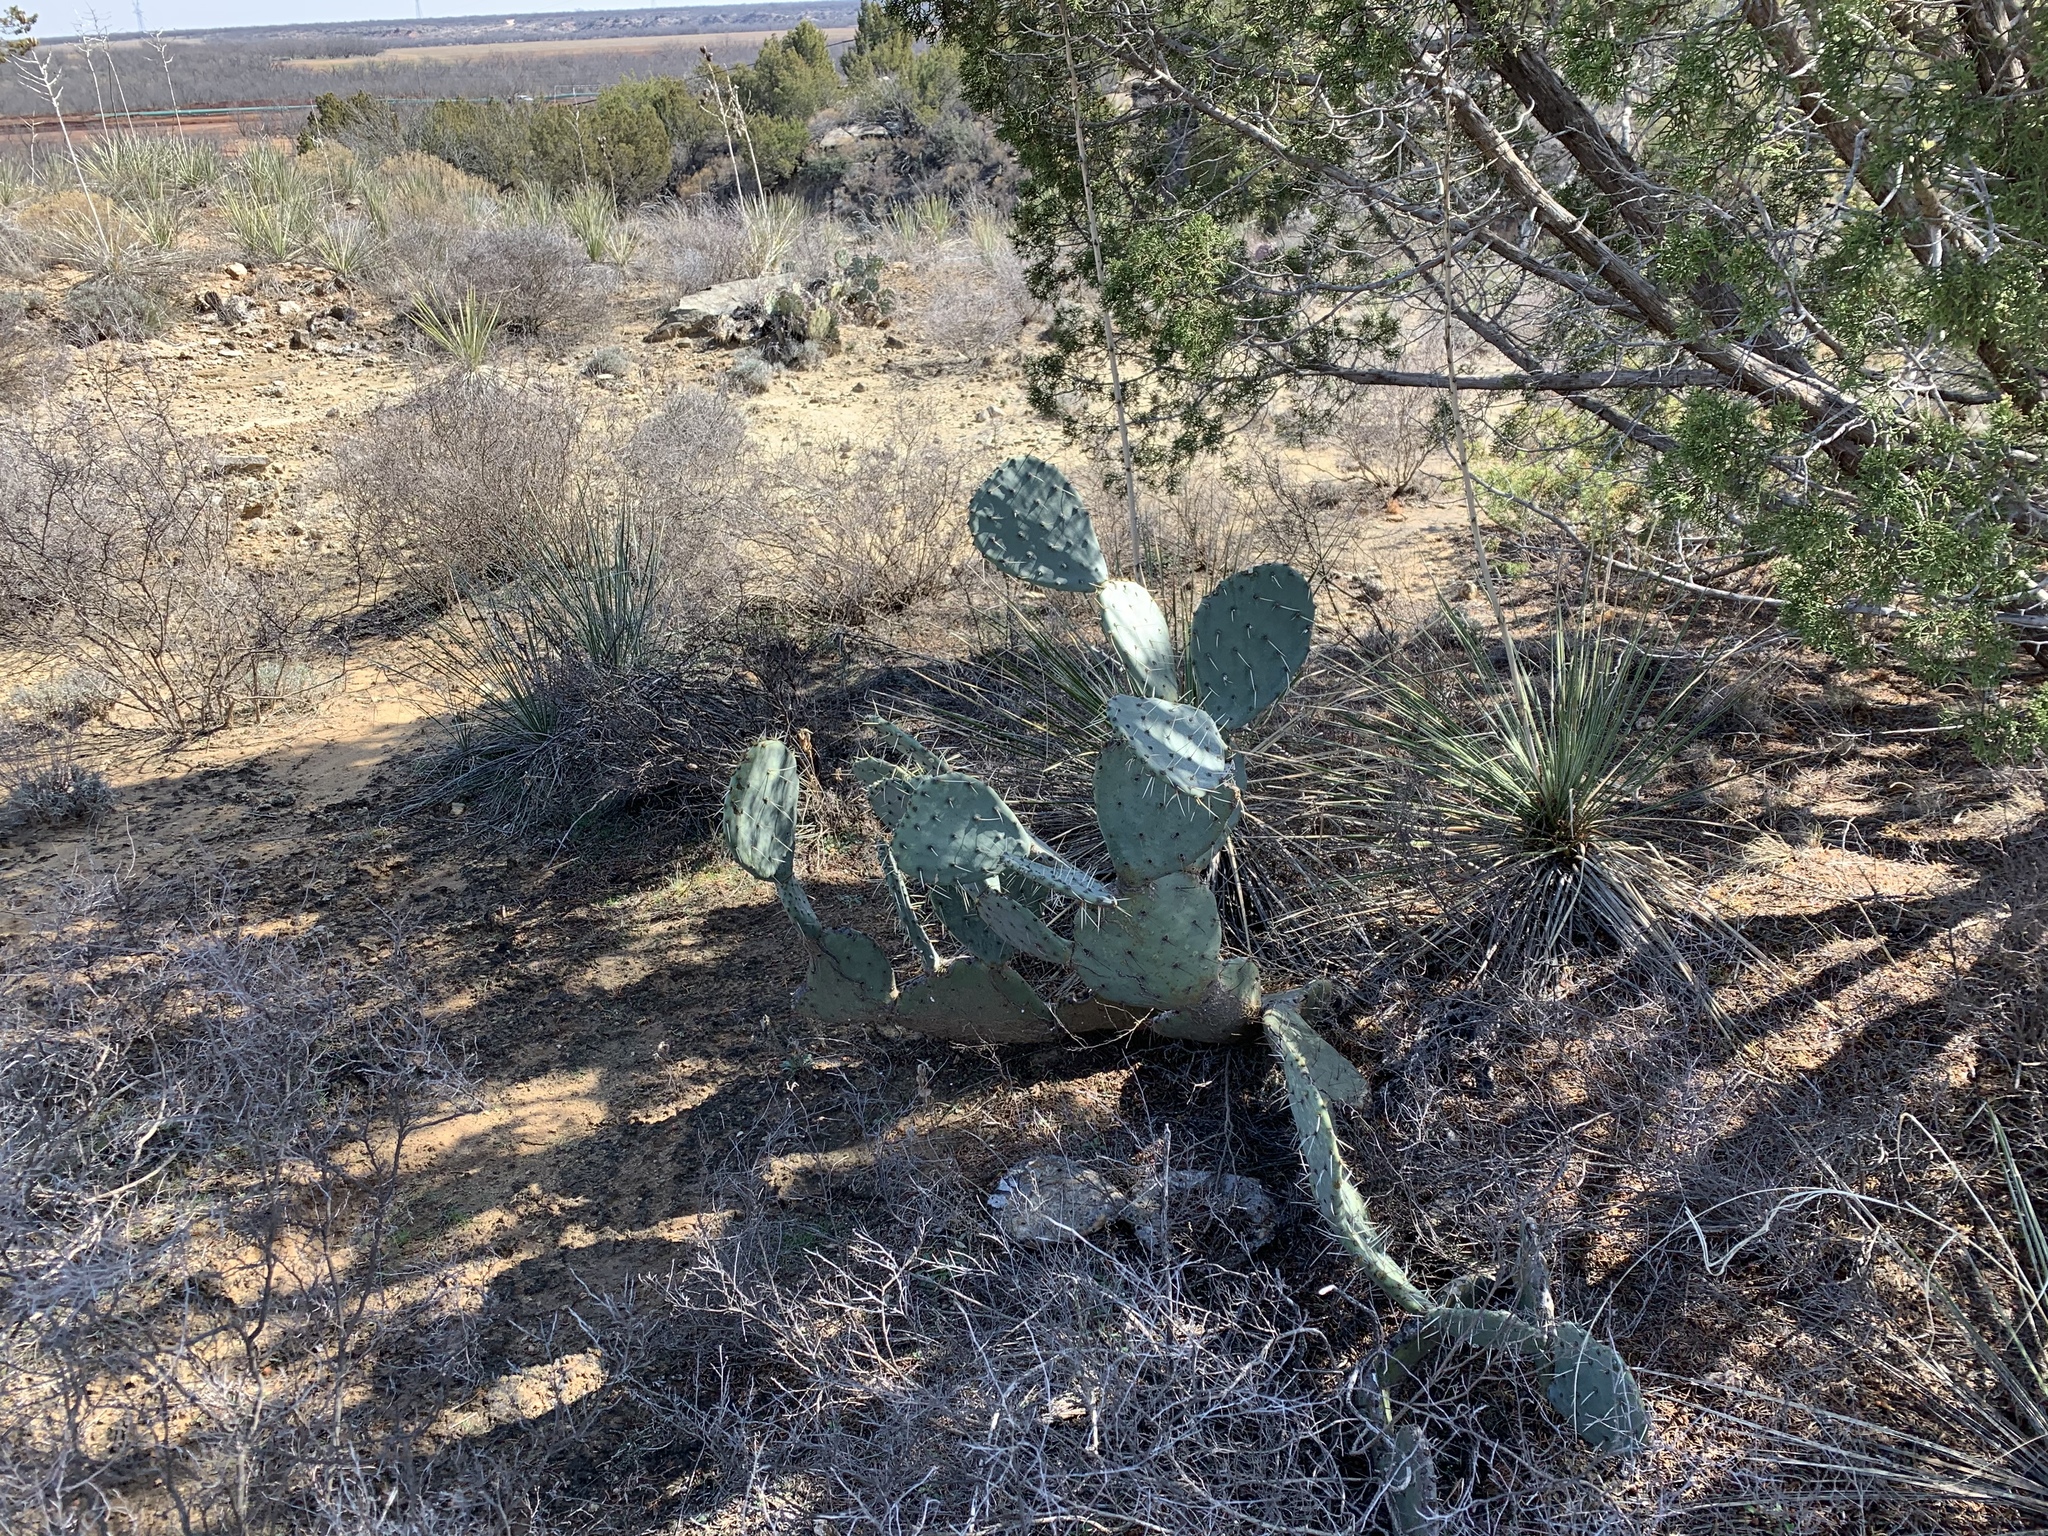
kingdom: Plantae
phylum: Tracheophyta
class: Magnoliopsida
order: Caryophyllales
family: Cactaceae
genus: Opuntia
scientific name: Opuntia engelmannii
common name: Cactus-apple
